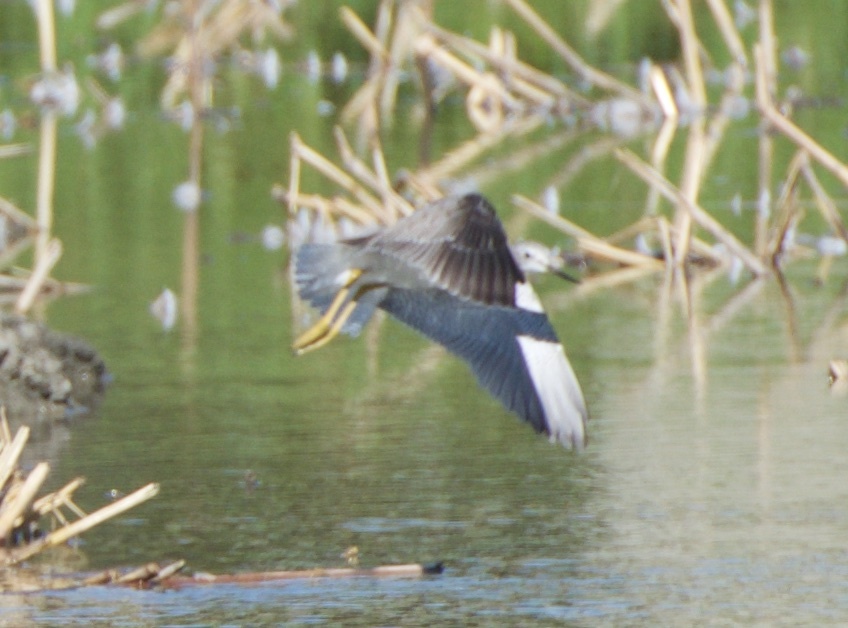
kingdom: Animalia
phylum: Chordata
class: Aves
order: Charadriiformes
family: Scolopacidae
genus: Tringa
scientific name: Tringa melanoleuca
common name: Greater yellowlegs
